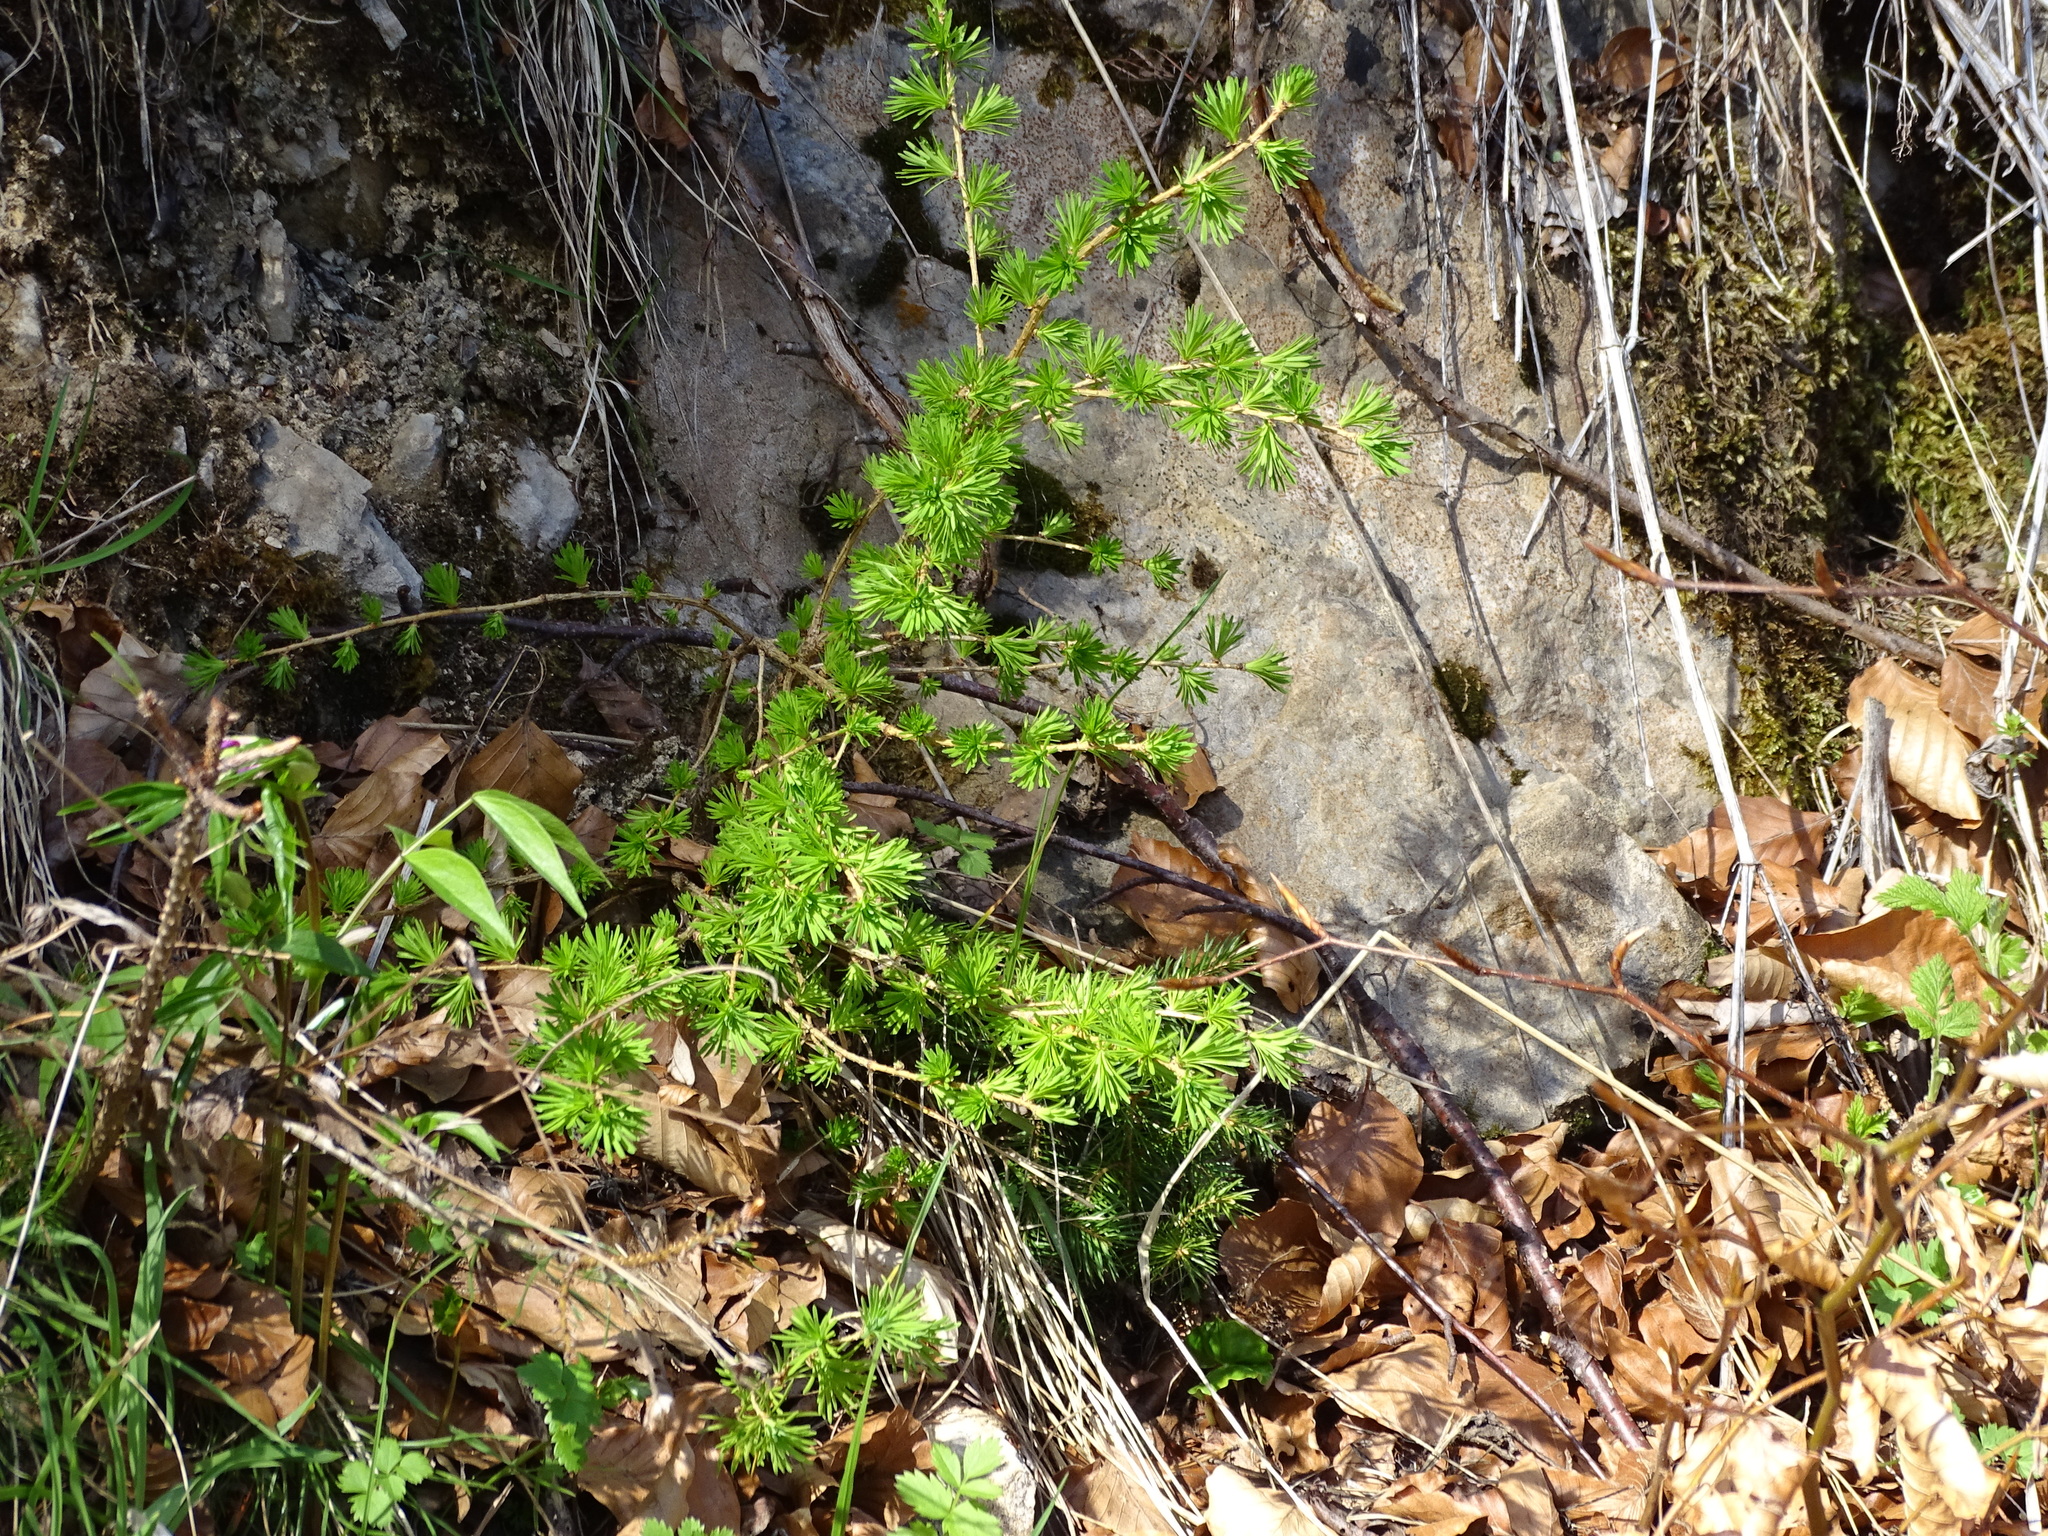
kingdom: Plantae
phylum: Tracheophyta
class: Pinopsida
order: Pinales
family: Pinaceae
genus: Larix
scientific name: Larix decidua
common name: European larch
